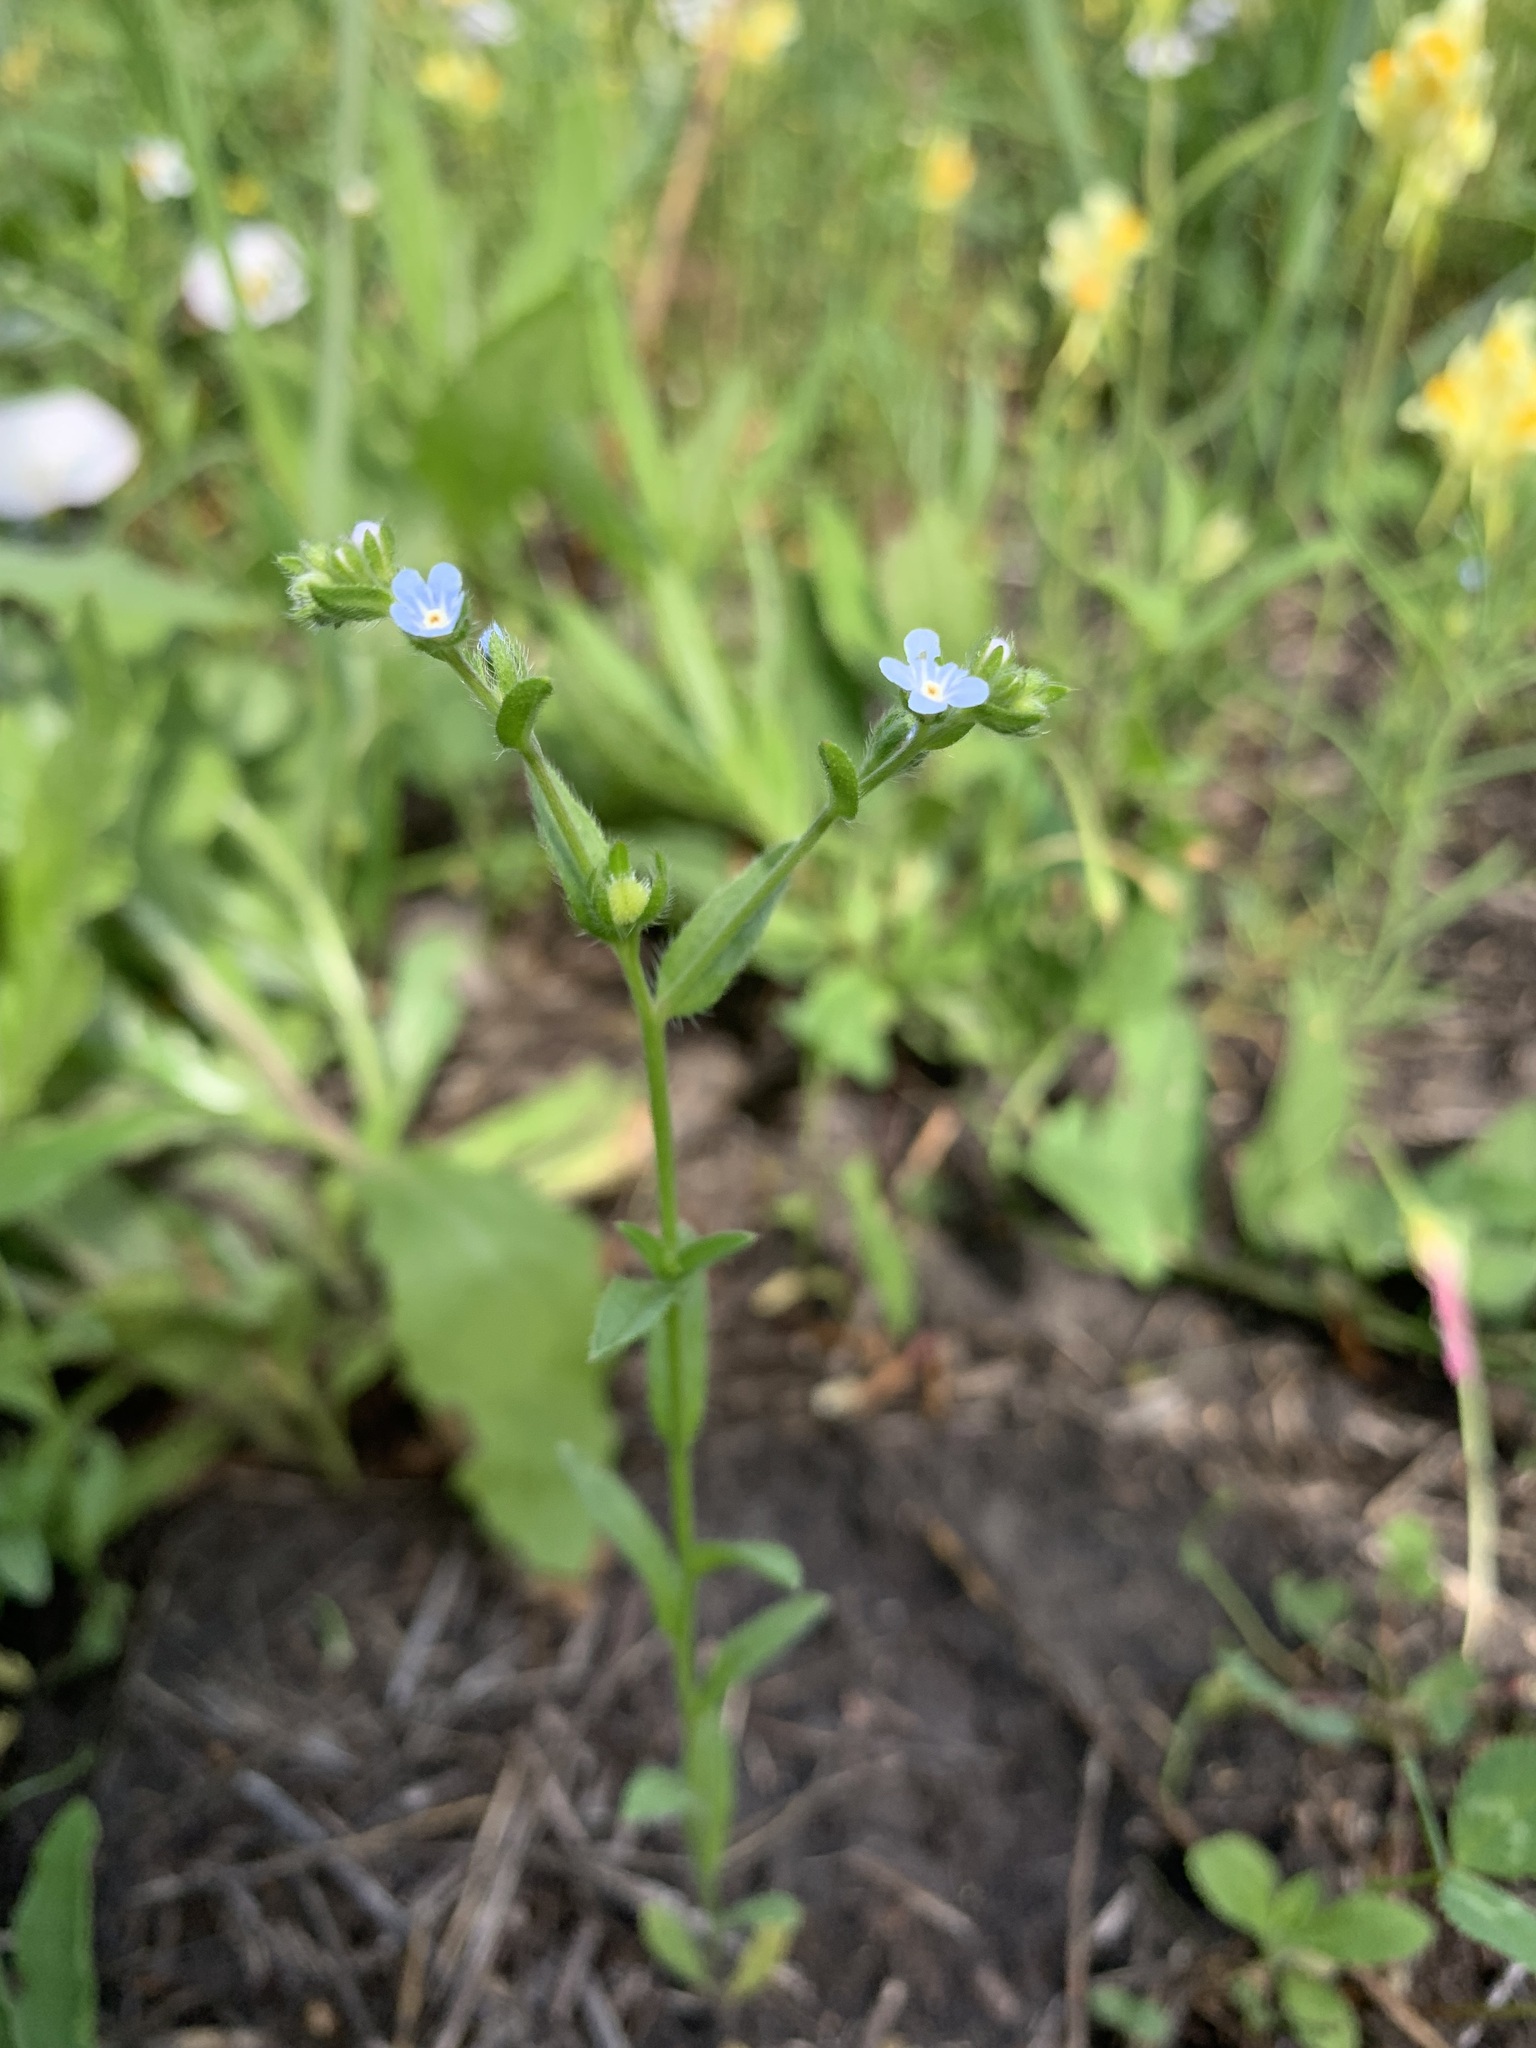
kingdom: Plantae
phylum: Tracheophyta
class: Magnoliopsida
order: Boraginales
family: Boraginaceae
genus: Lappula
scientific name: Lappula squarrosa
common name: European stickseed
